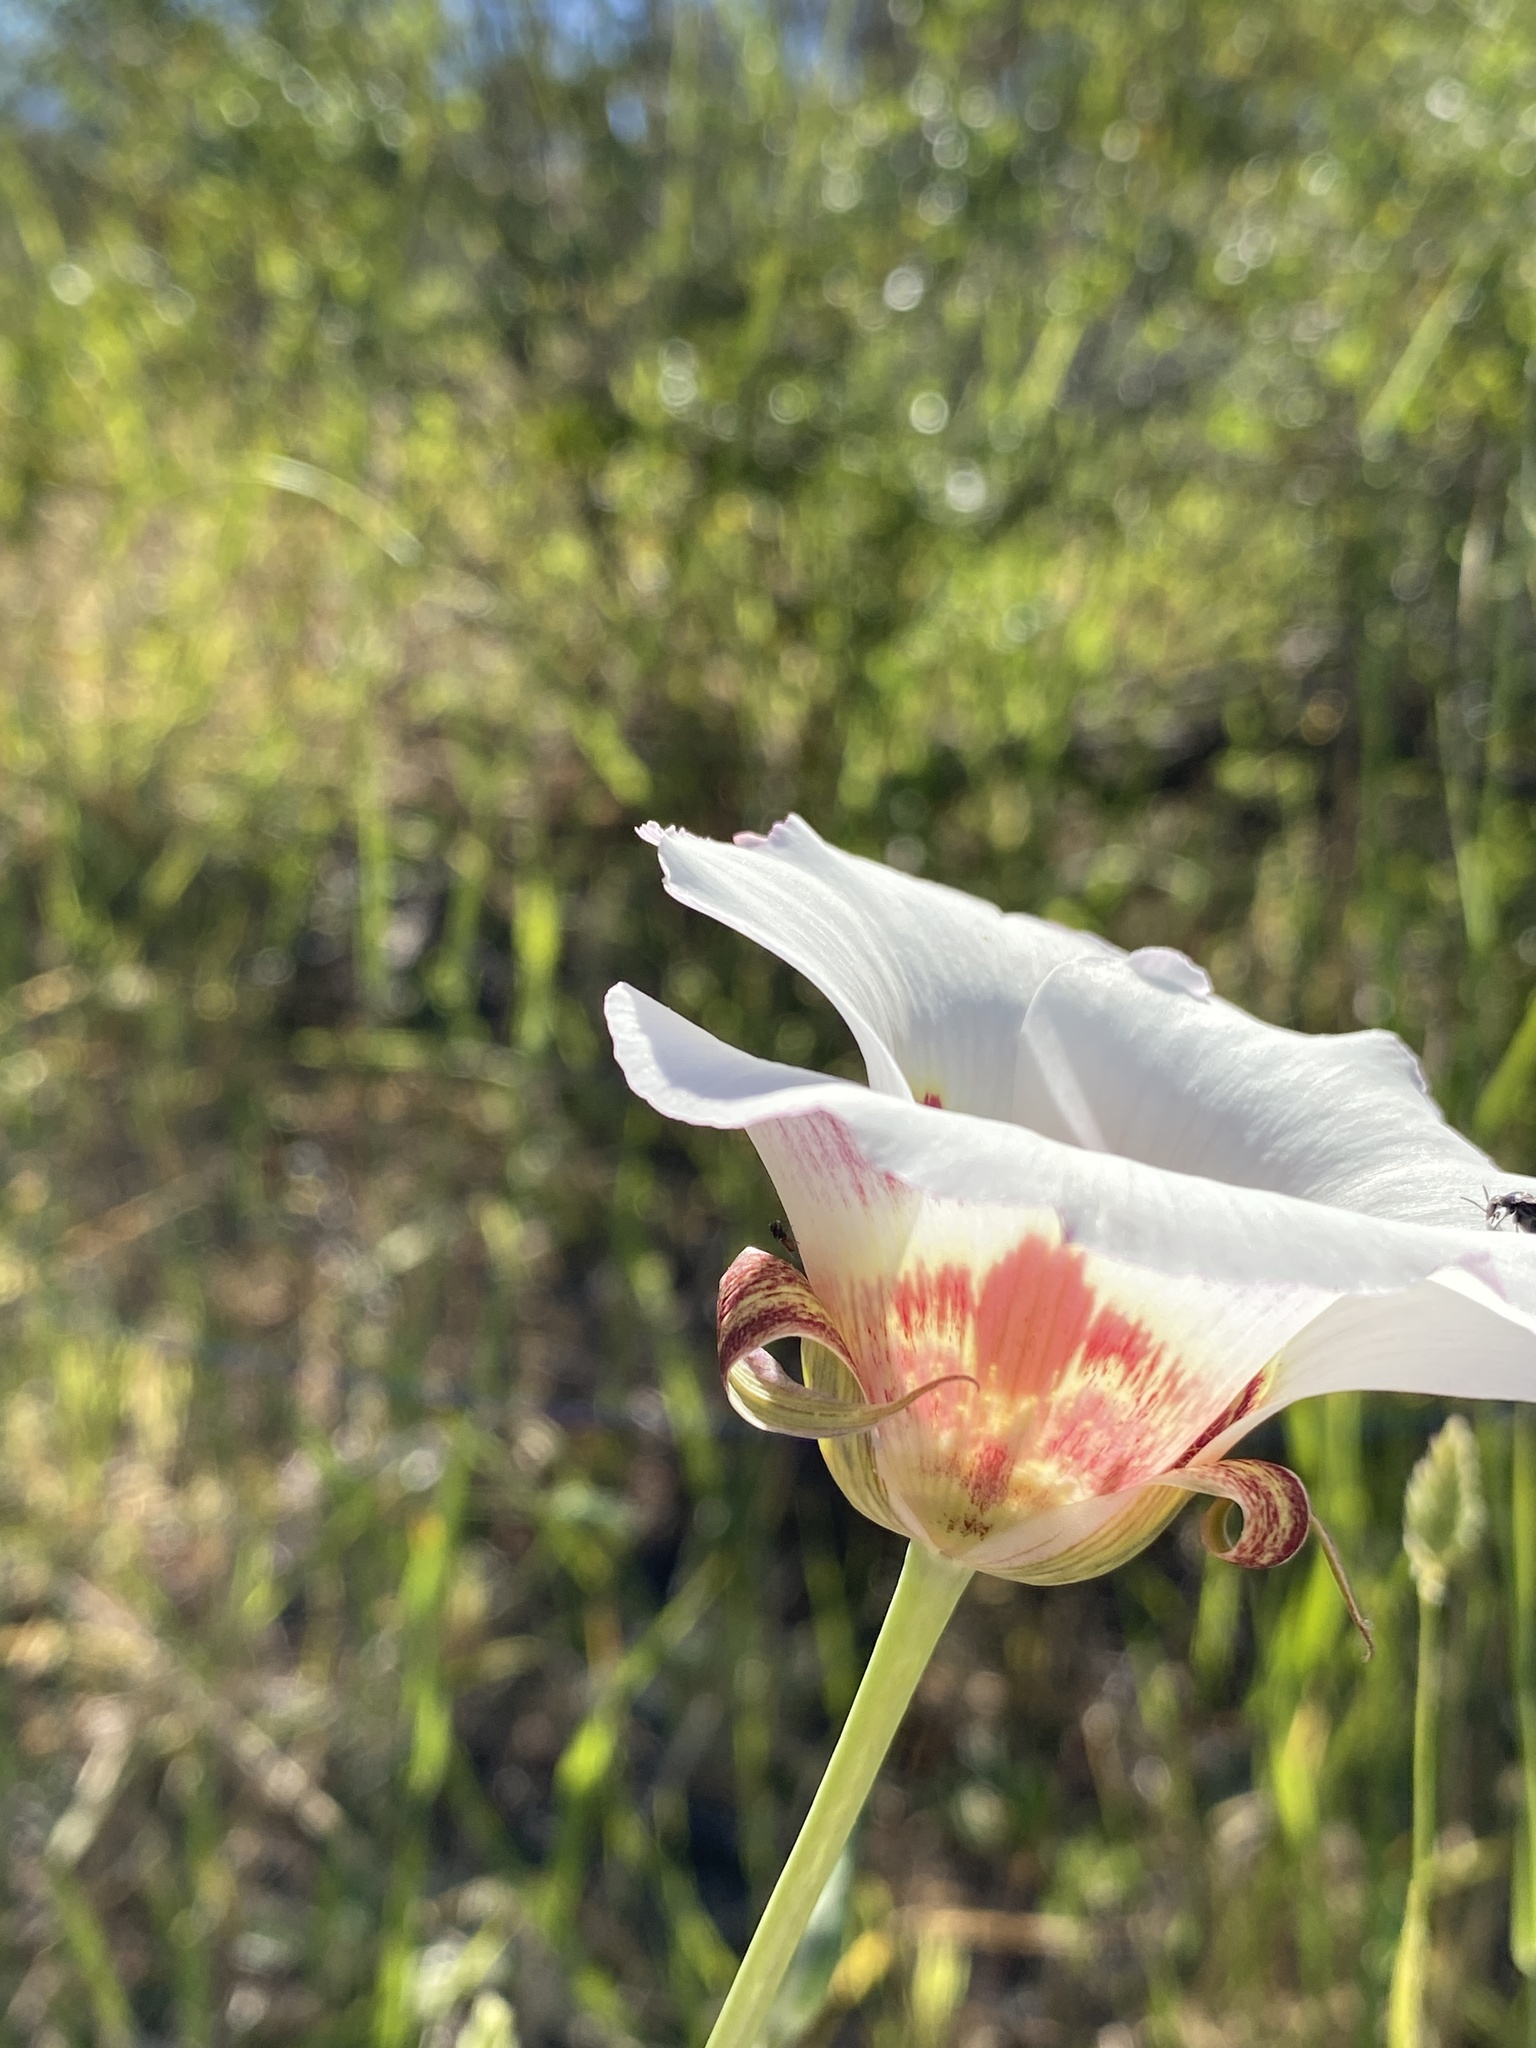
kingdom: Plantae
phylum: Tracheophyta
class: Liliopsida
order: Liliales
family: Liliaceae
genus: Calochortus
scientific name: Calochortus vestae
